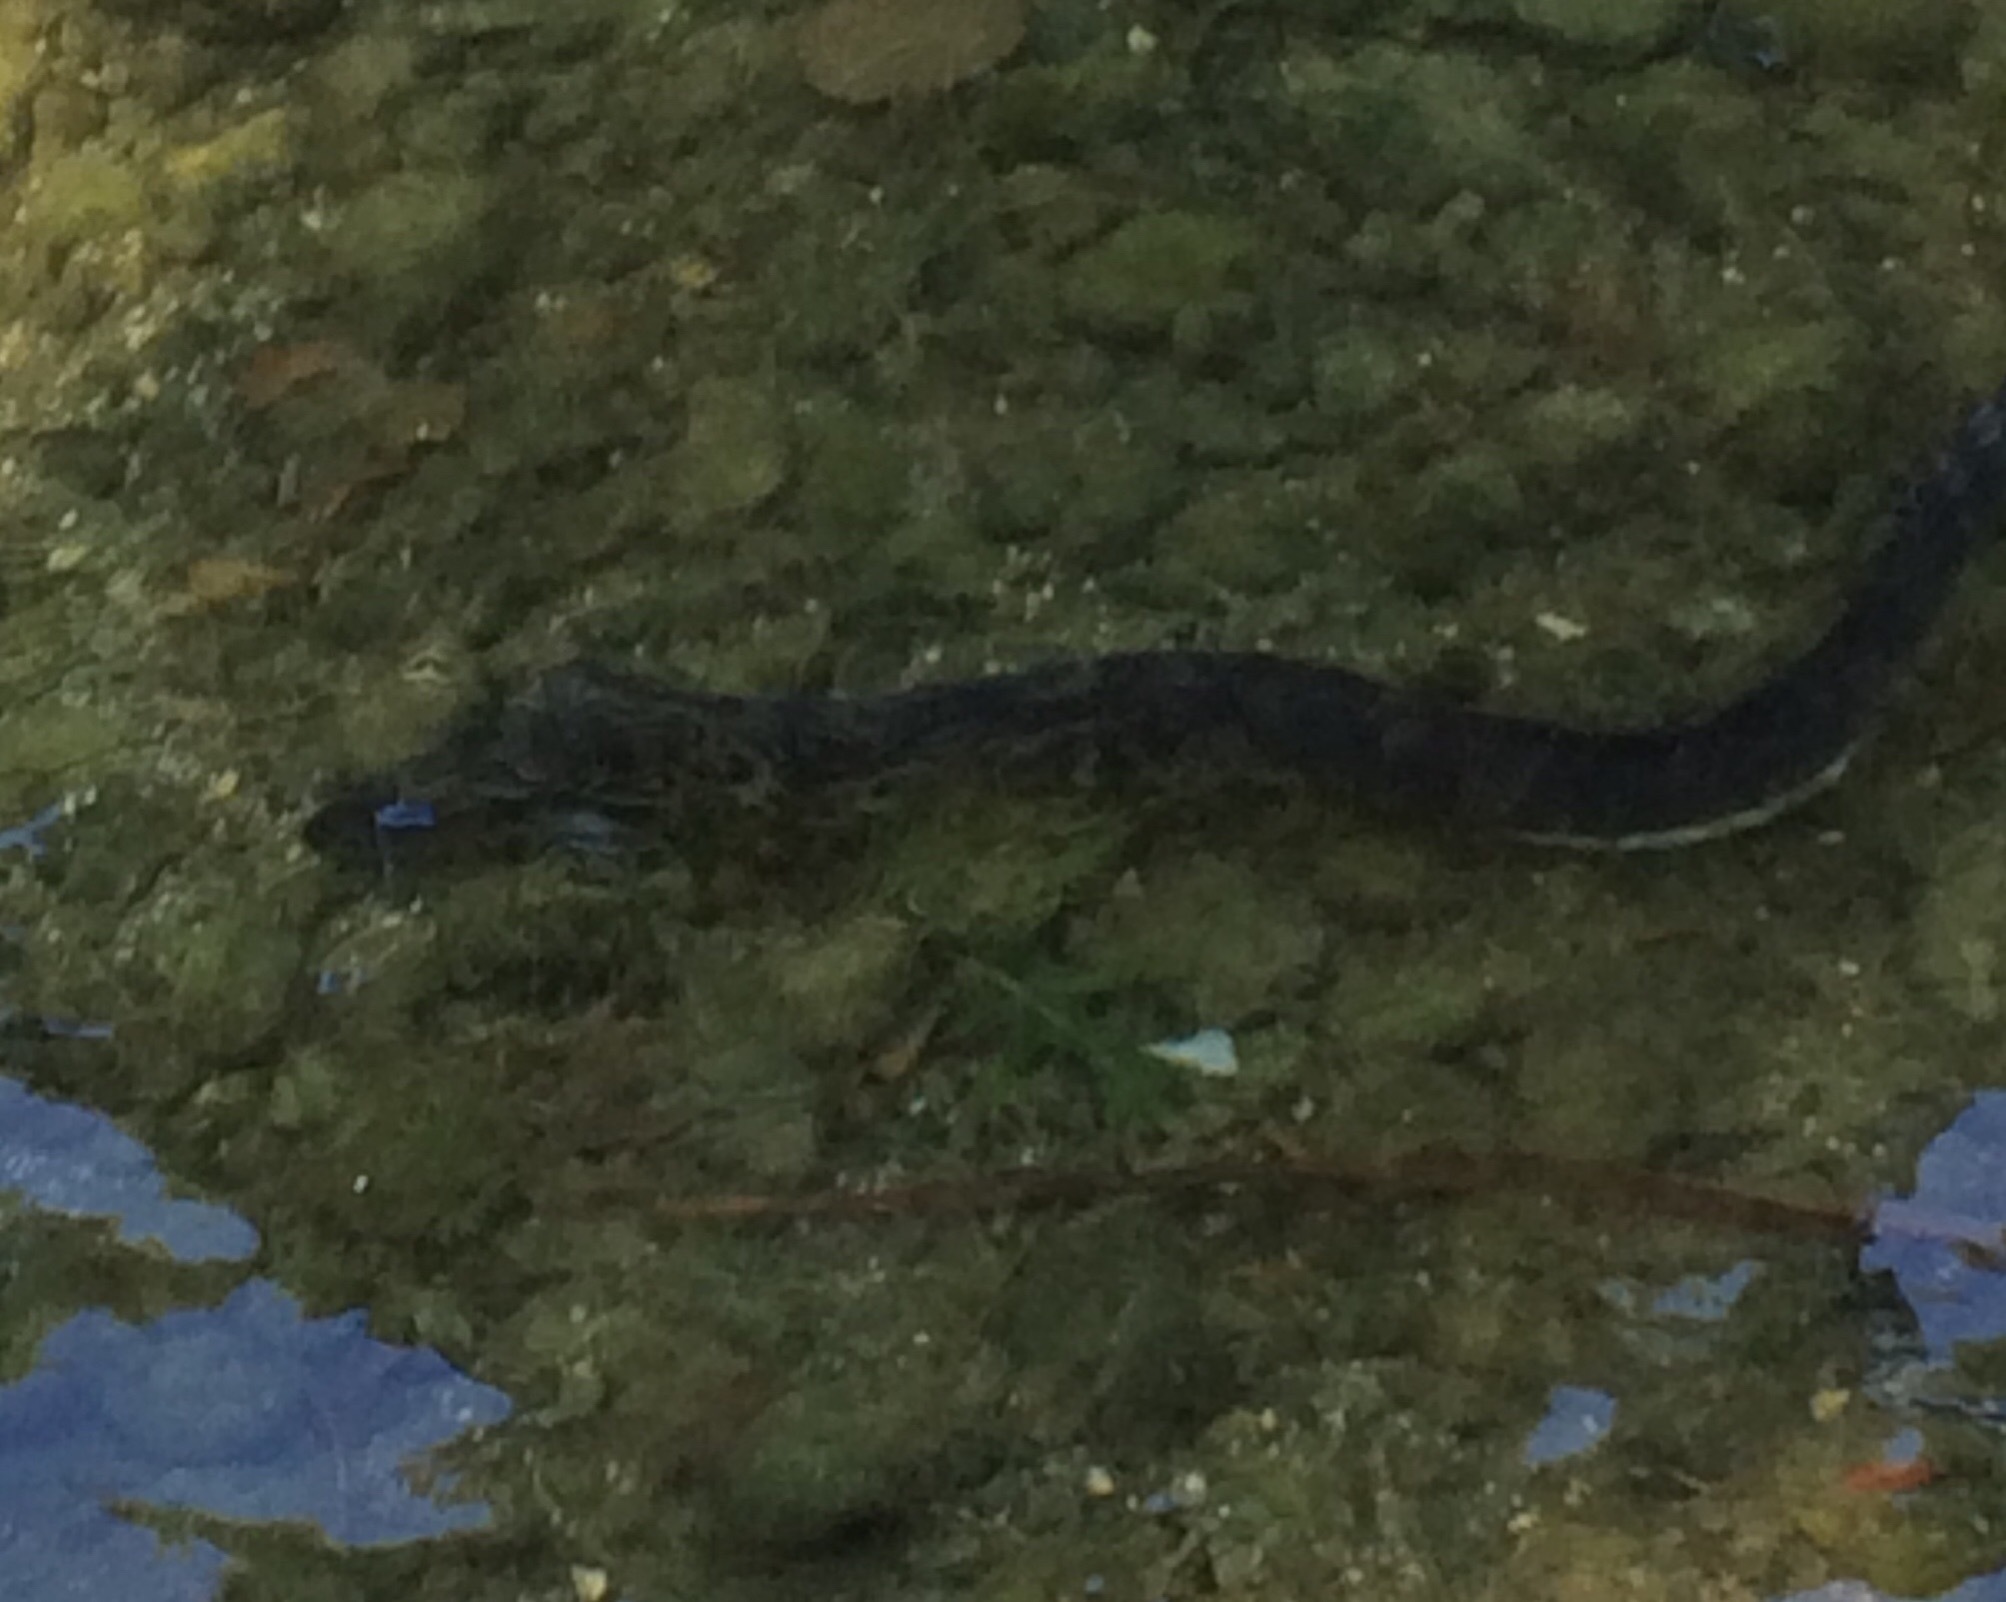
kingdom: Animalia
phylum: Chordata
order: Anguilliformes
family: Anguillidae
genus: Anguilla
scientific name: Anguilla australis
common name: Shortfin eel
